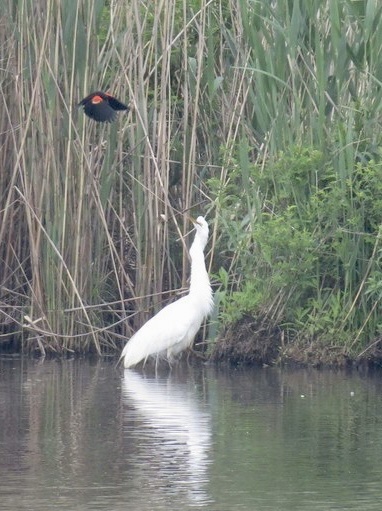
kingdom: Animalia
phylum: Chordata
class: Aves
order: Pelecaniformes
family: Ardeidae
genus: Ardea
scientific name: Ardea alba
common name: Great egret
